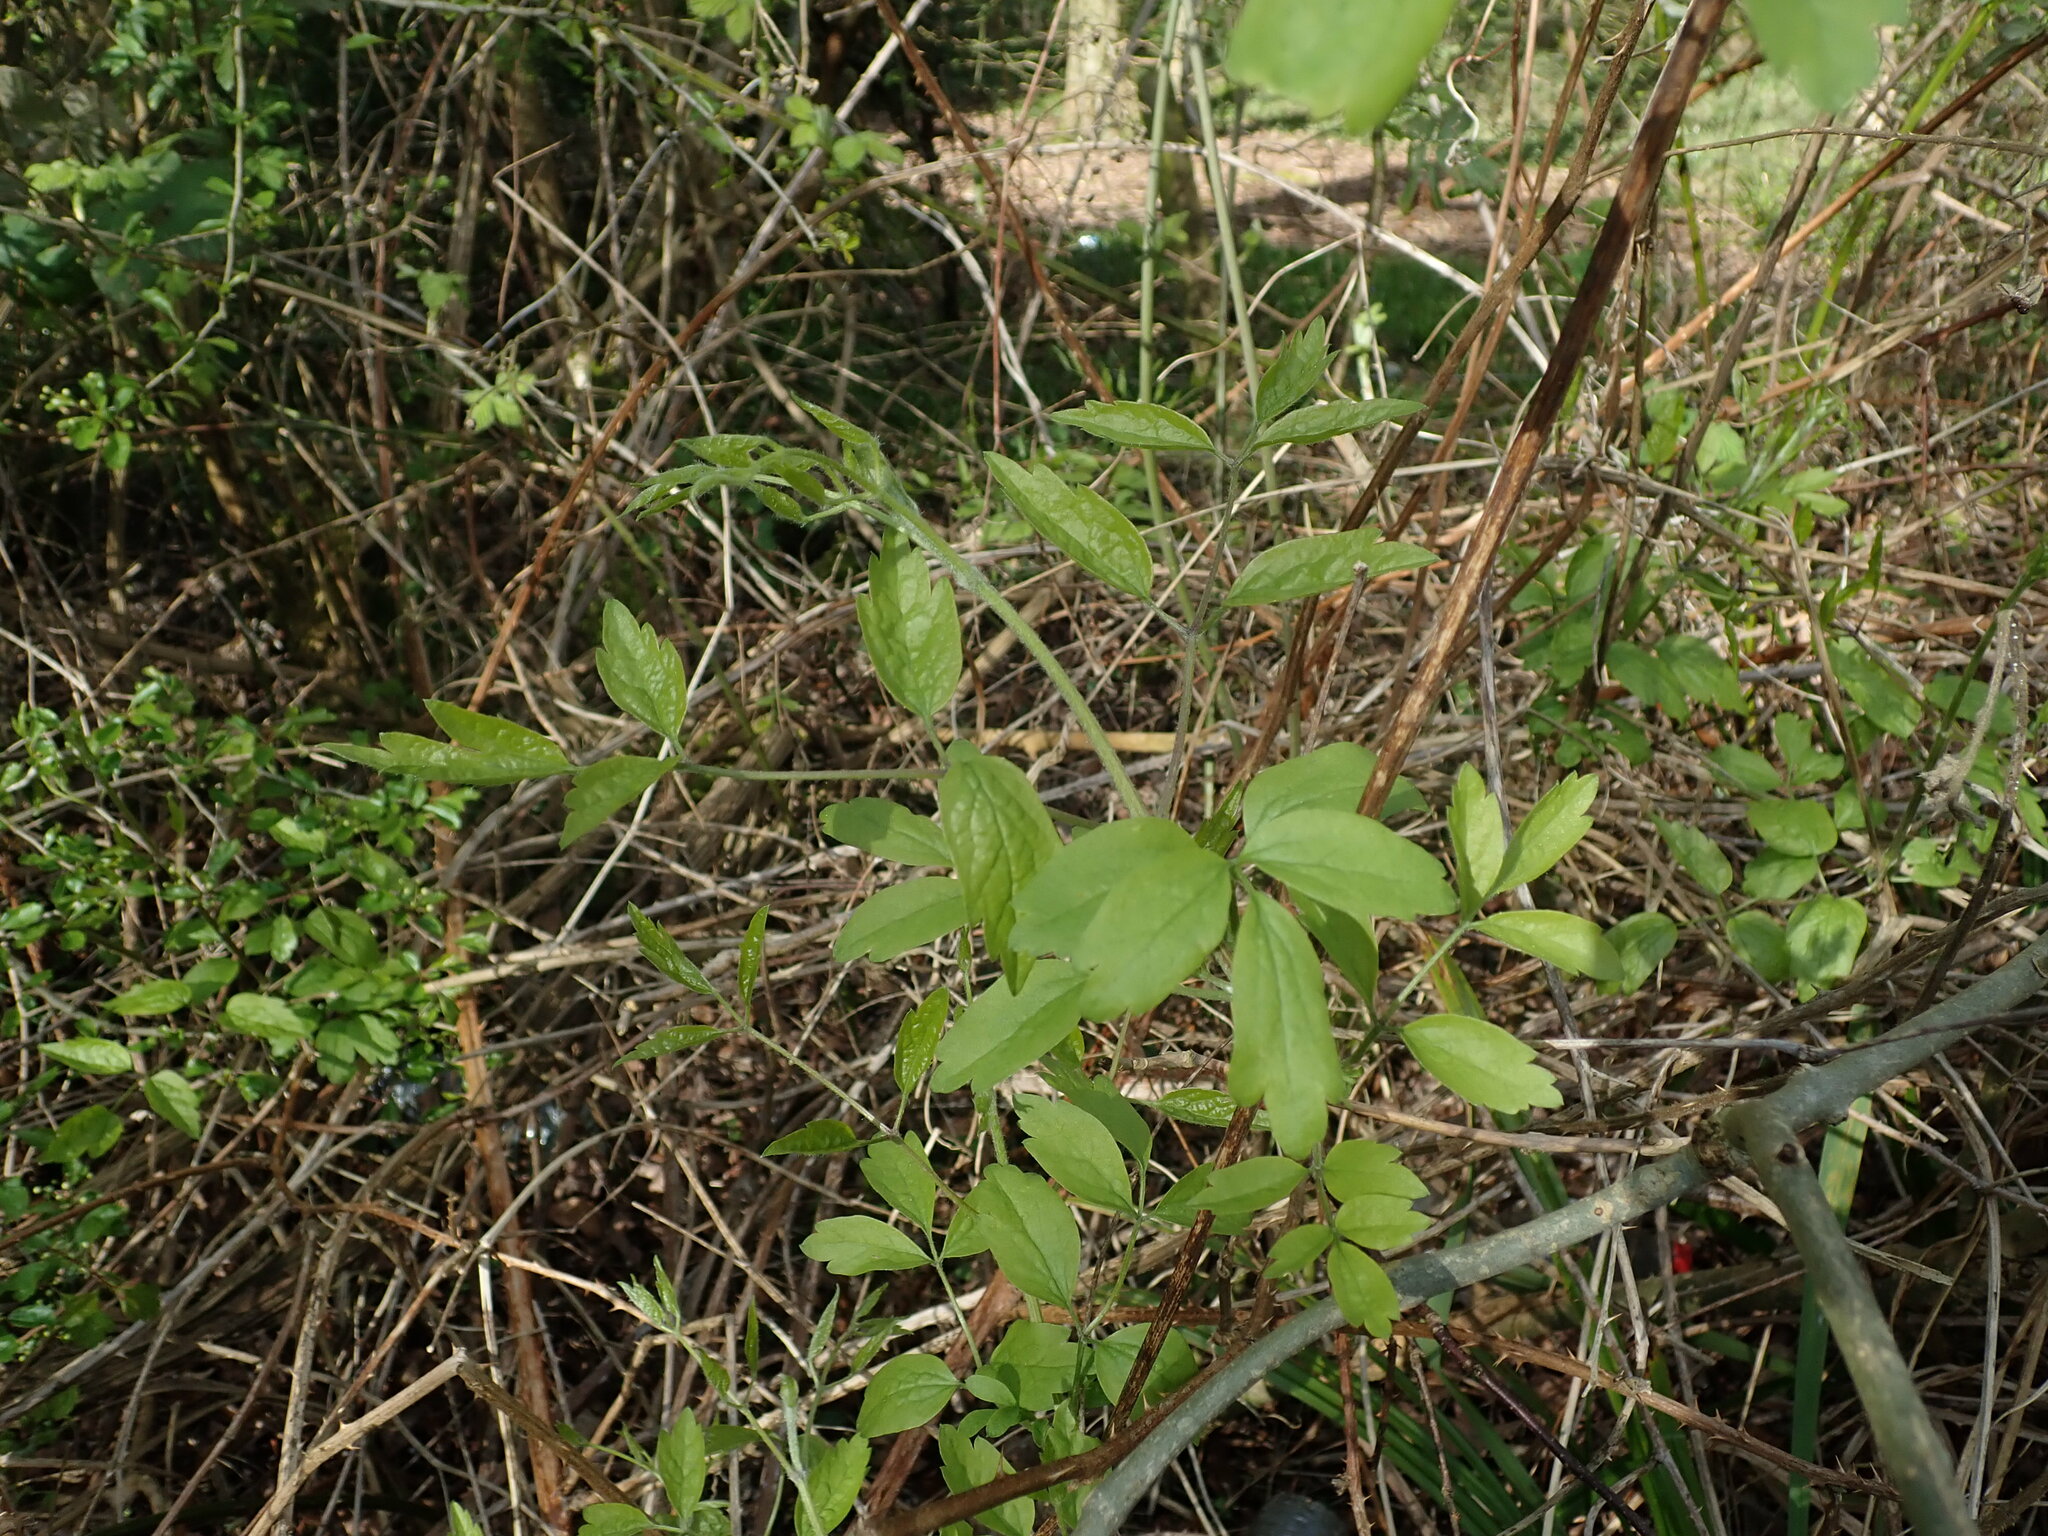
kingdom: Plantae
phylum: Tracheophyta
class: Magnoliopsida
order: Ranunculales
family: Ranunculaceae
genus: Clematis
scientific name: Clematis vitalba
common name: Evergreen clematis
